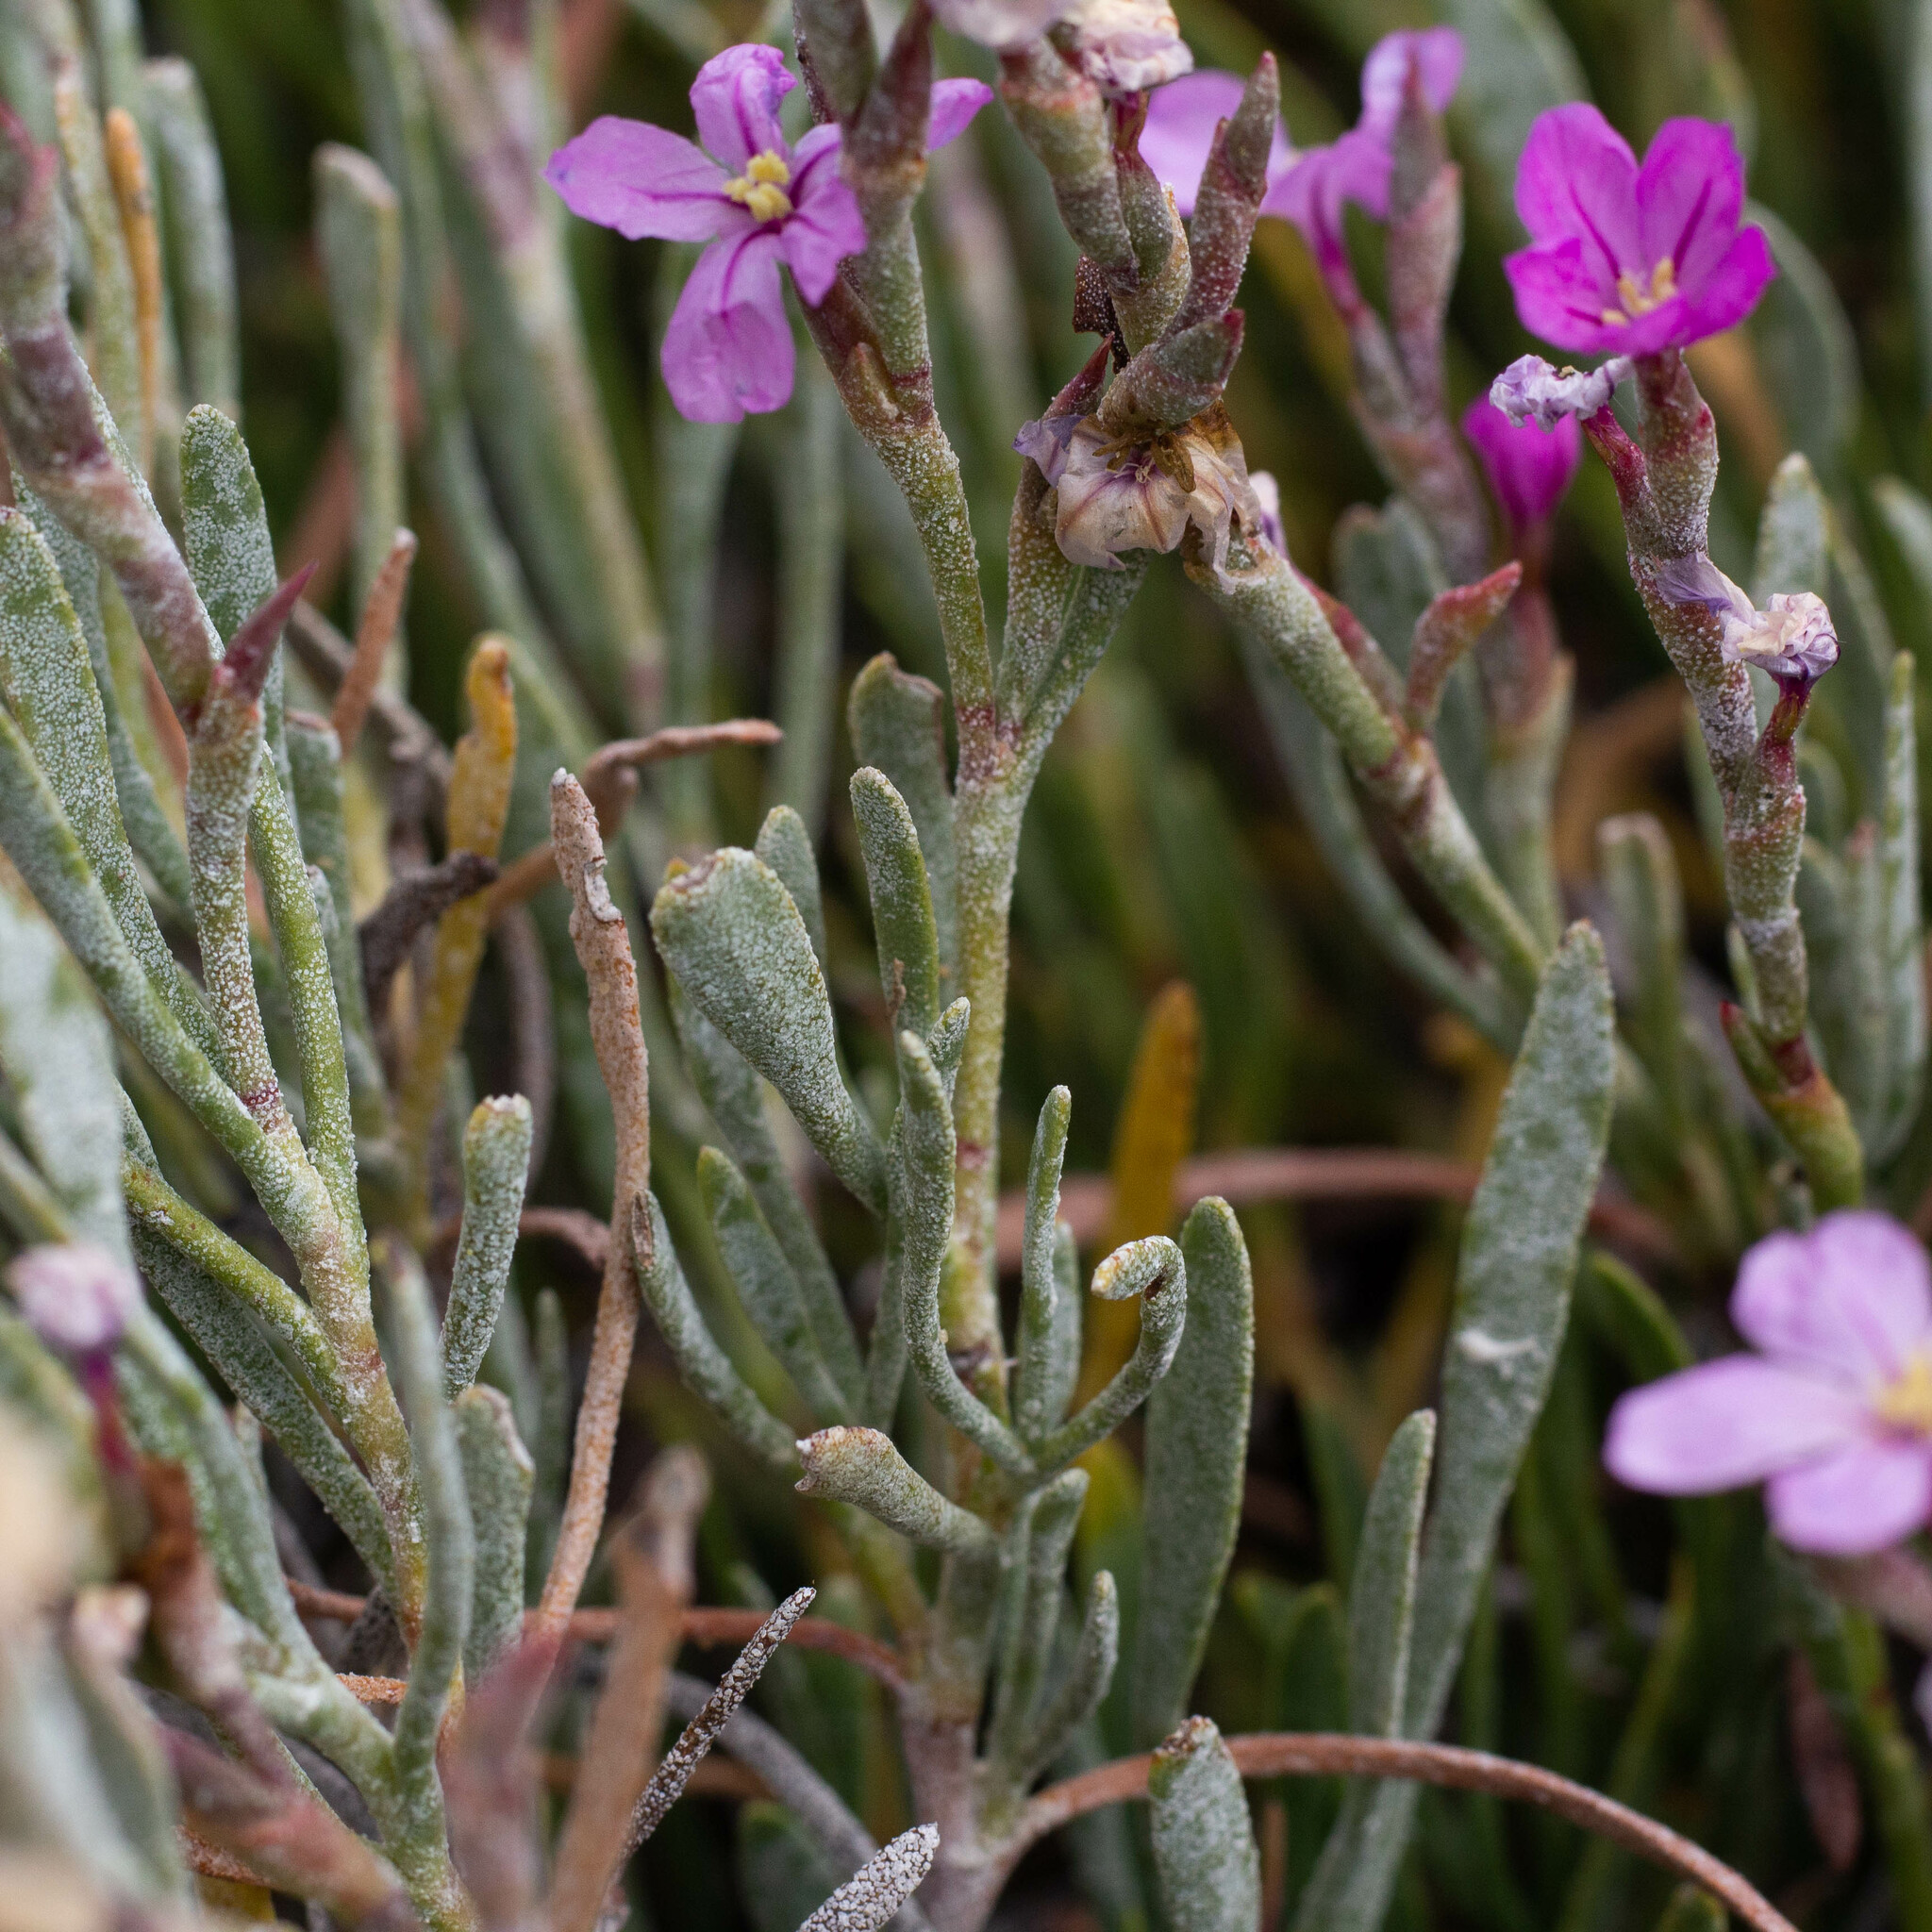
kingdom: Plantae
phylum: Tracheophyta
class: Magnoliopsida
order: Caryophyllales
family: Plumbaginaceae
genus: Limoniastrum
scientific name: Limoniastrum monopetalum
